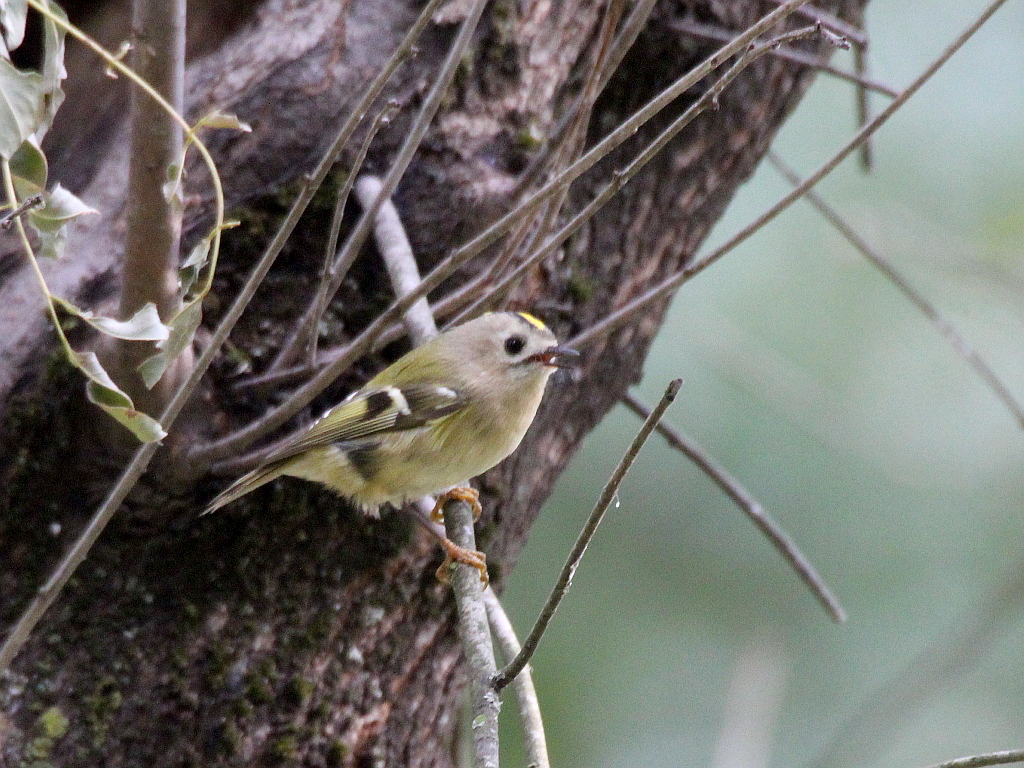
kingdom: Animalia
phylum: Chordata
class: Aves
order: Passeriformes
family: Regulidae
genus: Regulus
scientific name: Regulus regulus
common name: Goldcrest
